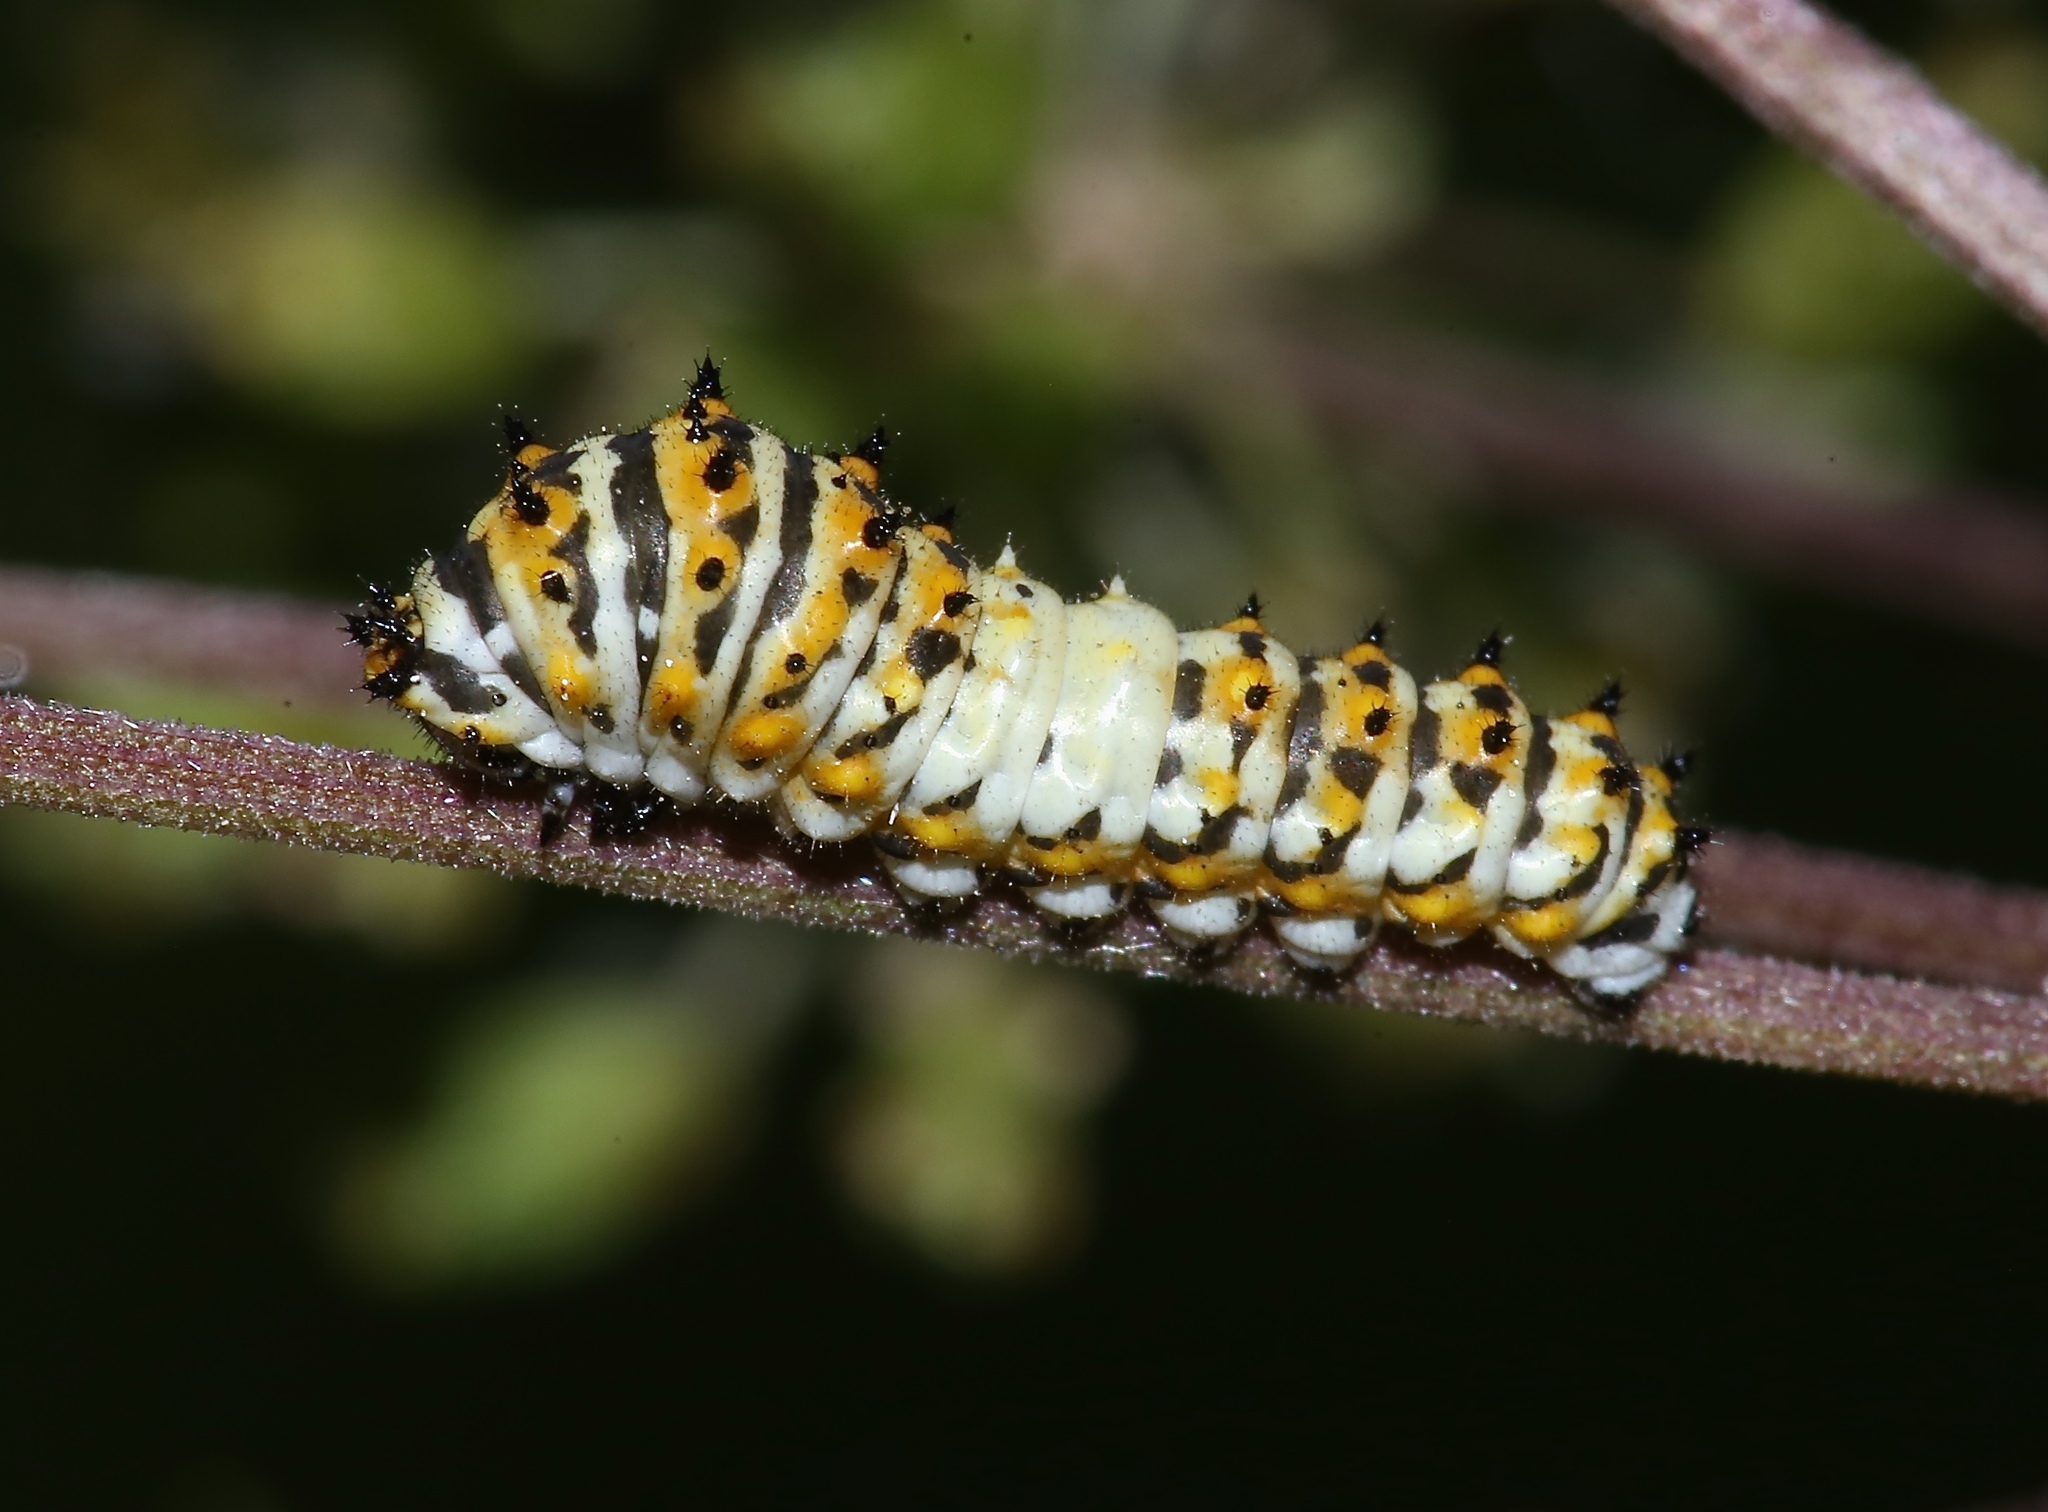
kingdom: Animalia
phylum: Arthropoda
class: Insecta
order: Lepidoptera
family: Papilionidae
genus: Papilio
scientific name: Papilio polyxenes
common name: Black swallowtail
